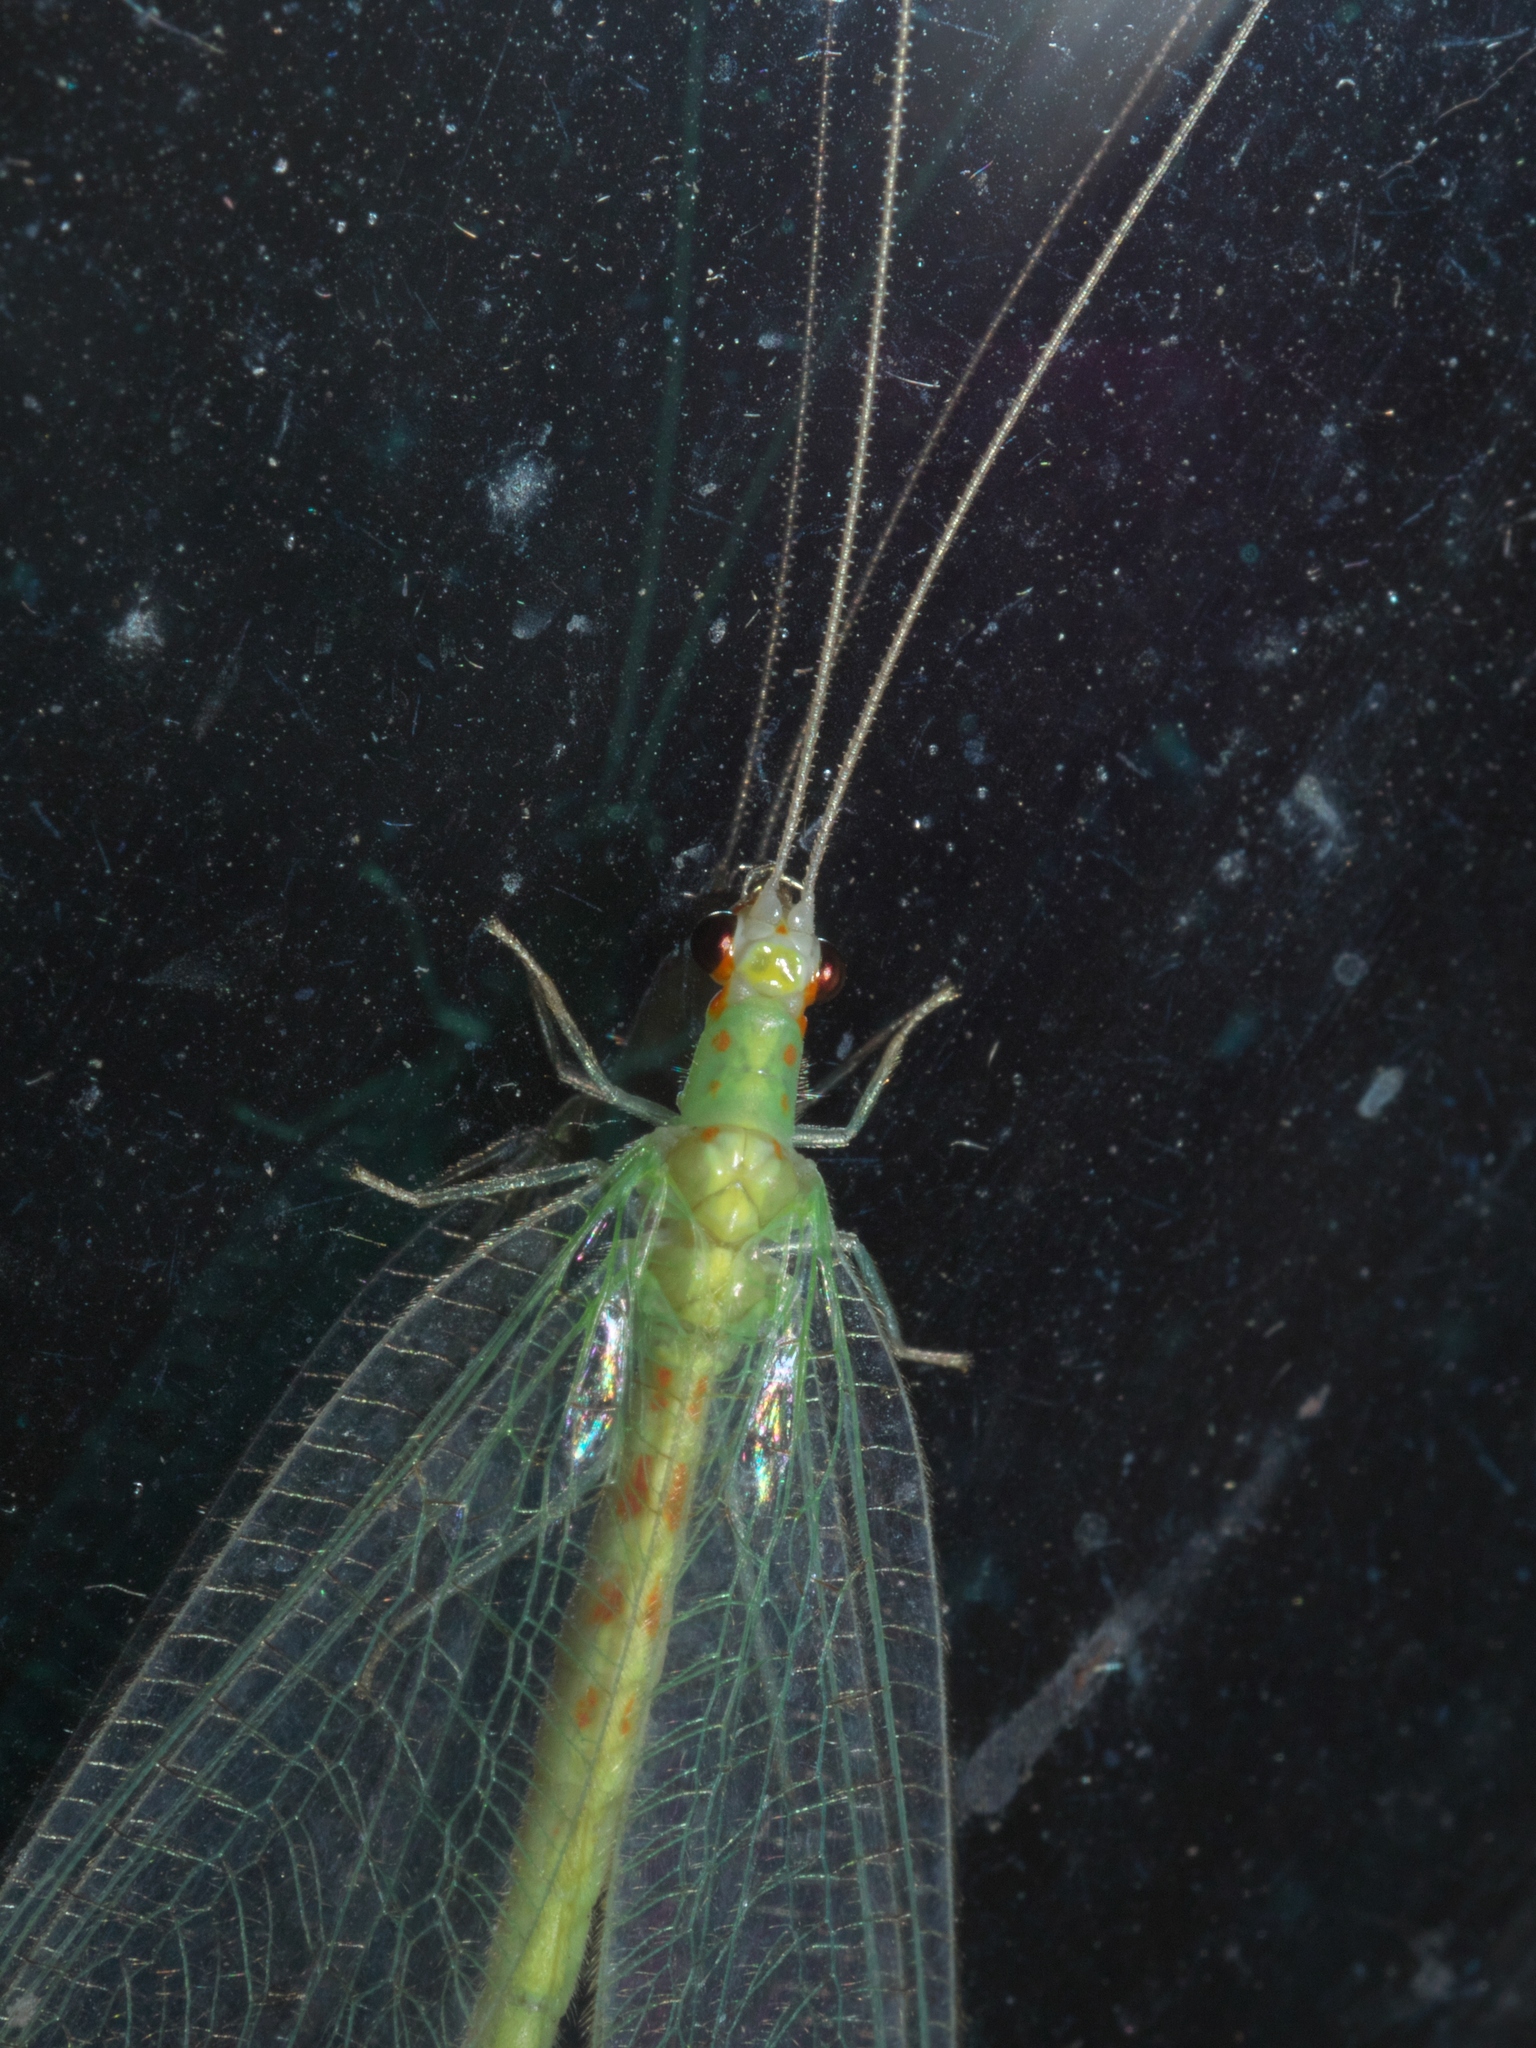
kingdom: Animalia
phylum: Arthropoda
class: Insecta
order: Neuroptera
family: Chrysopidae
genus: Chrysopa
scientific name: Chrysopa quadripunctata
